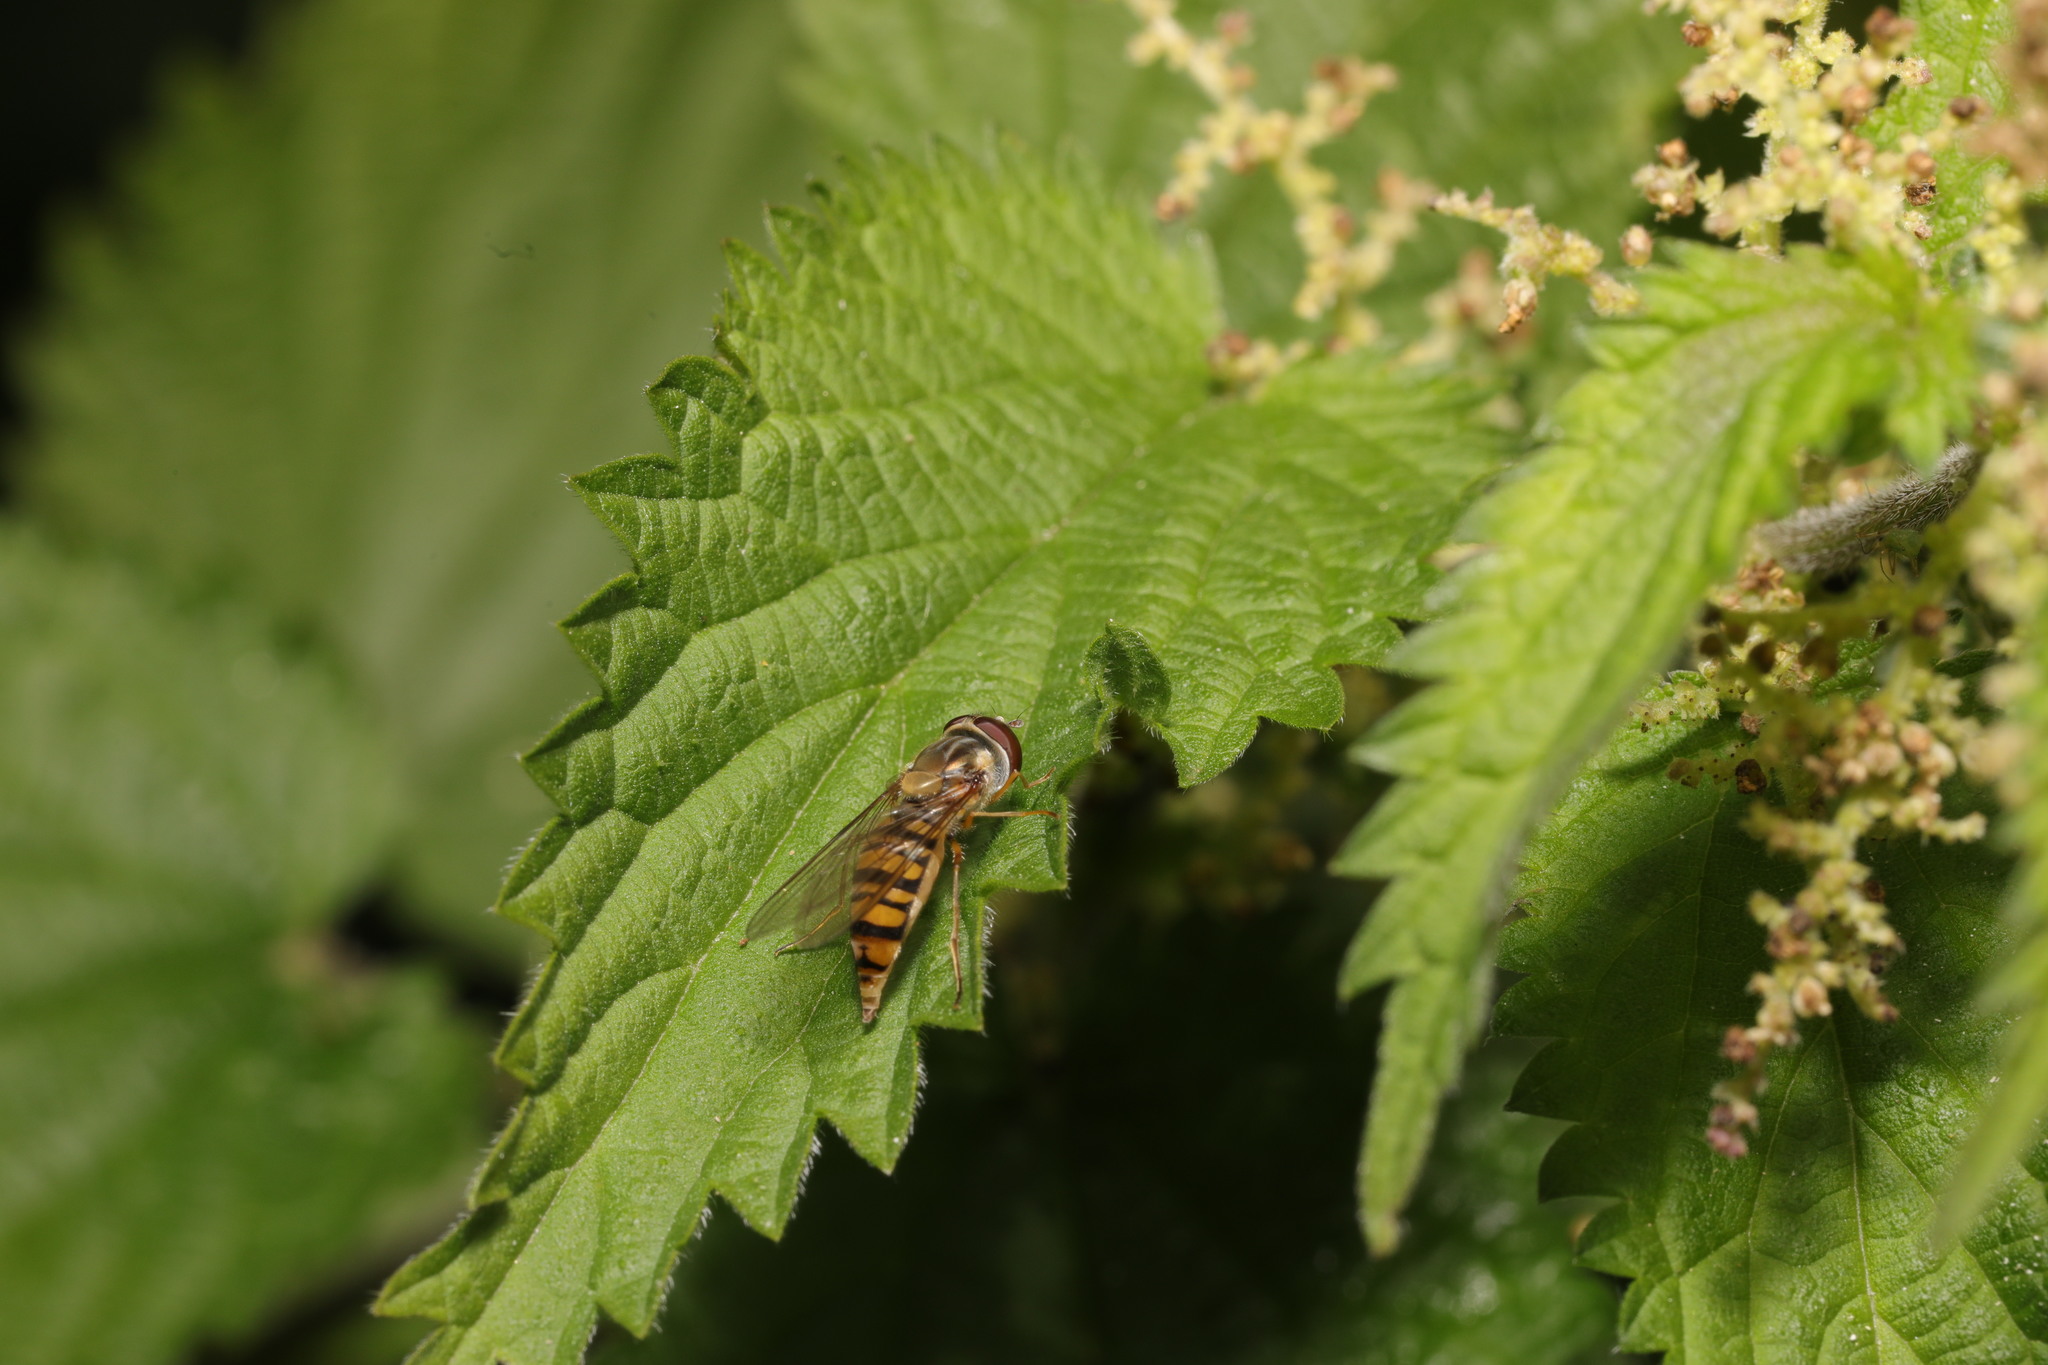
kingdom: Animalia
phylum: Arthropoda
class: Insecta
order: Diptera
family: Syrphidae
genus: Episyrphus
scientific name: Episyrphus balteatus
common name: Marmalade hoverfly
